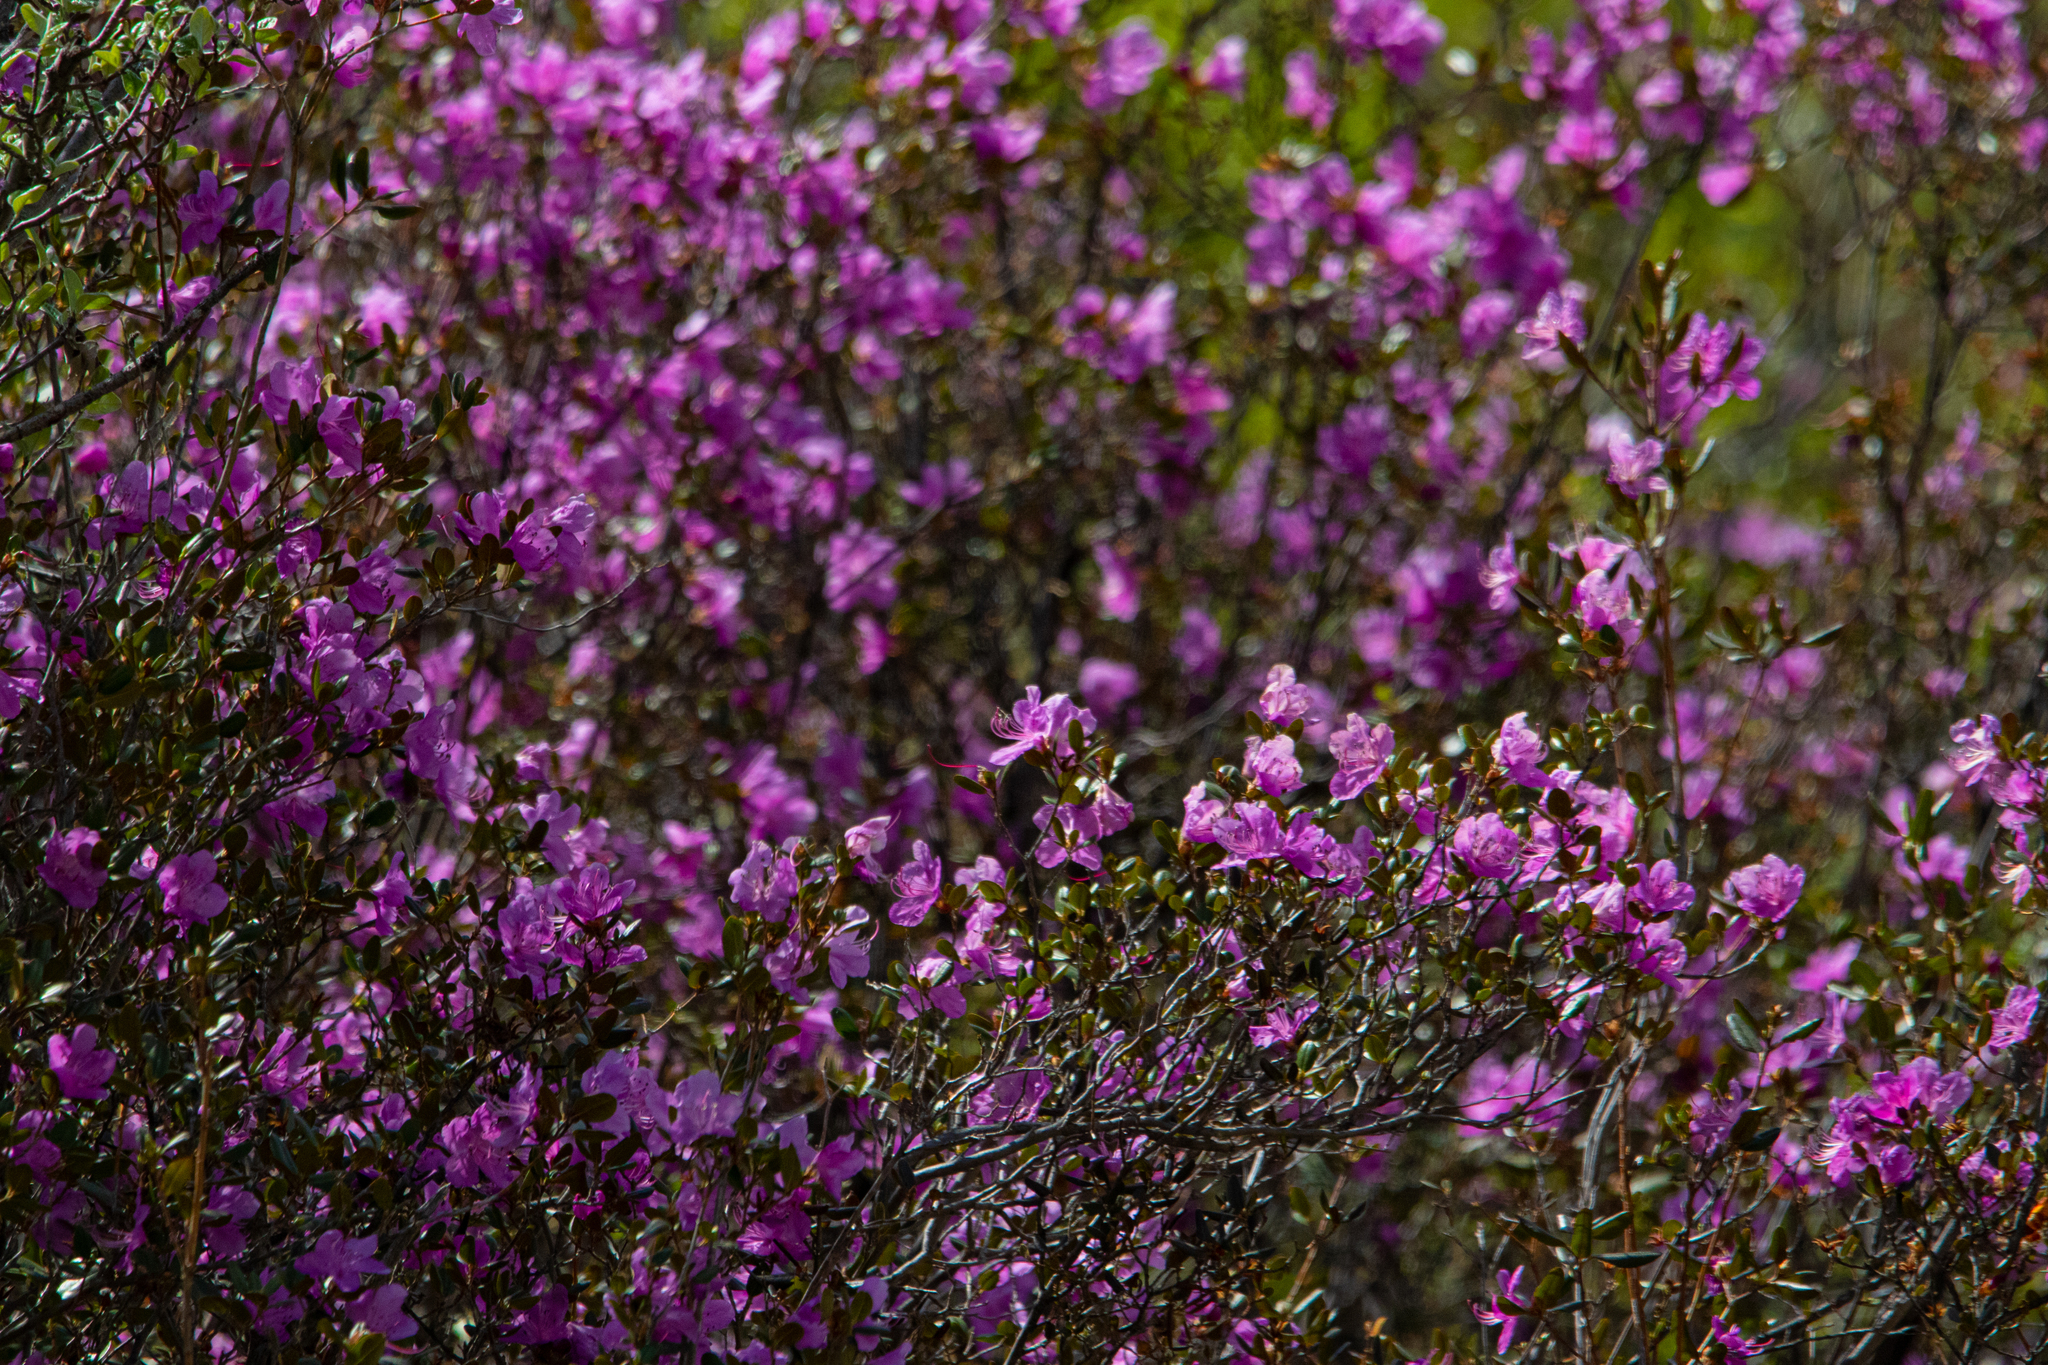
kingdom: Plantae
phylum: Tracheophyta
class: Magnoliopsida
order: Ericales
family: Ericaceae
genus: Rhododendron
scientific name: Rhododendron dauricum
